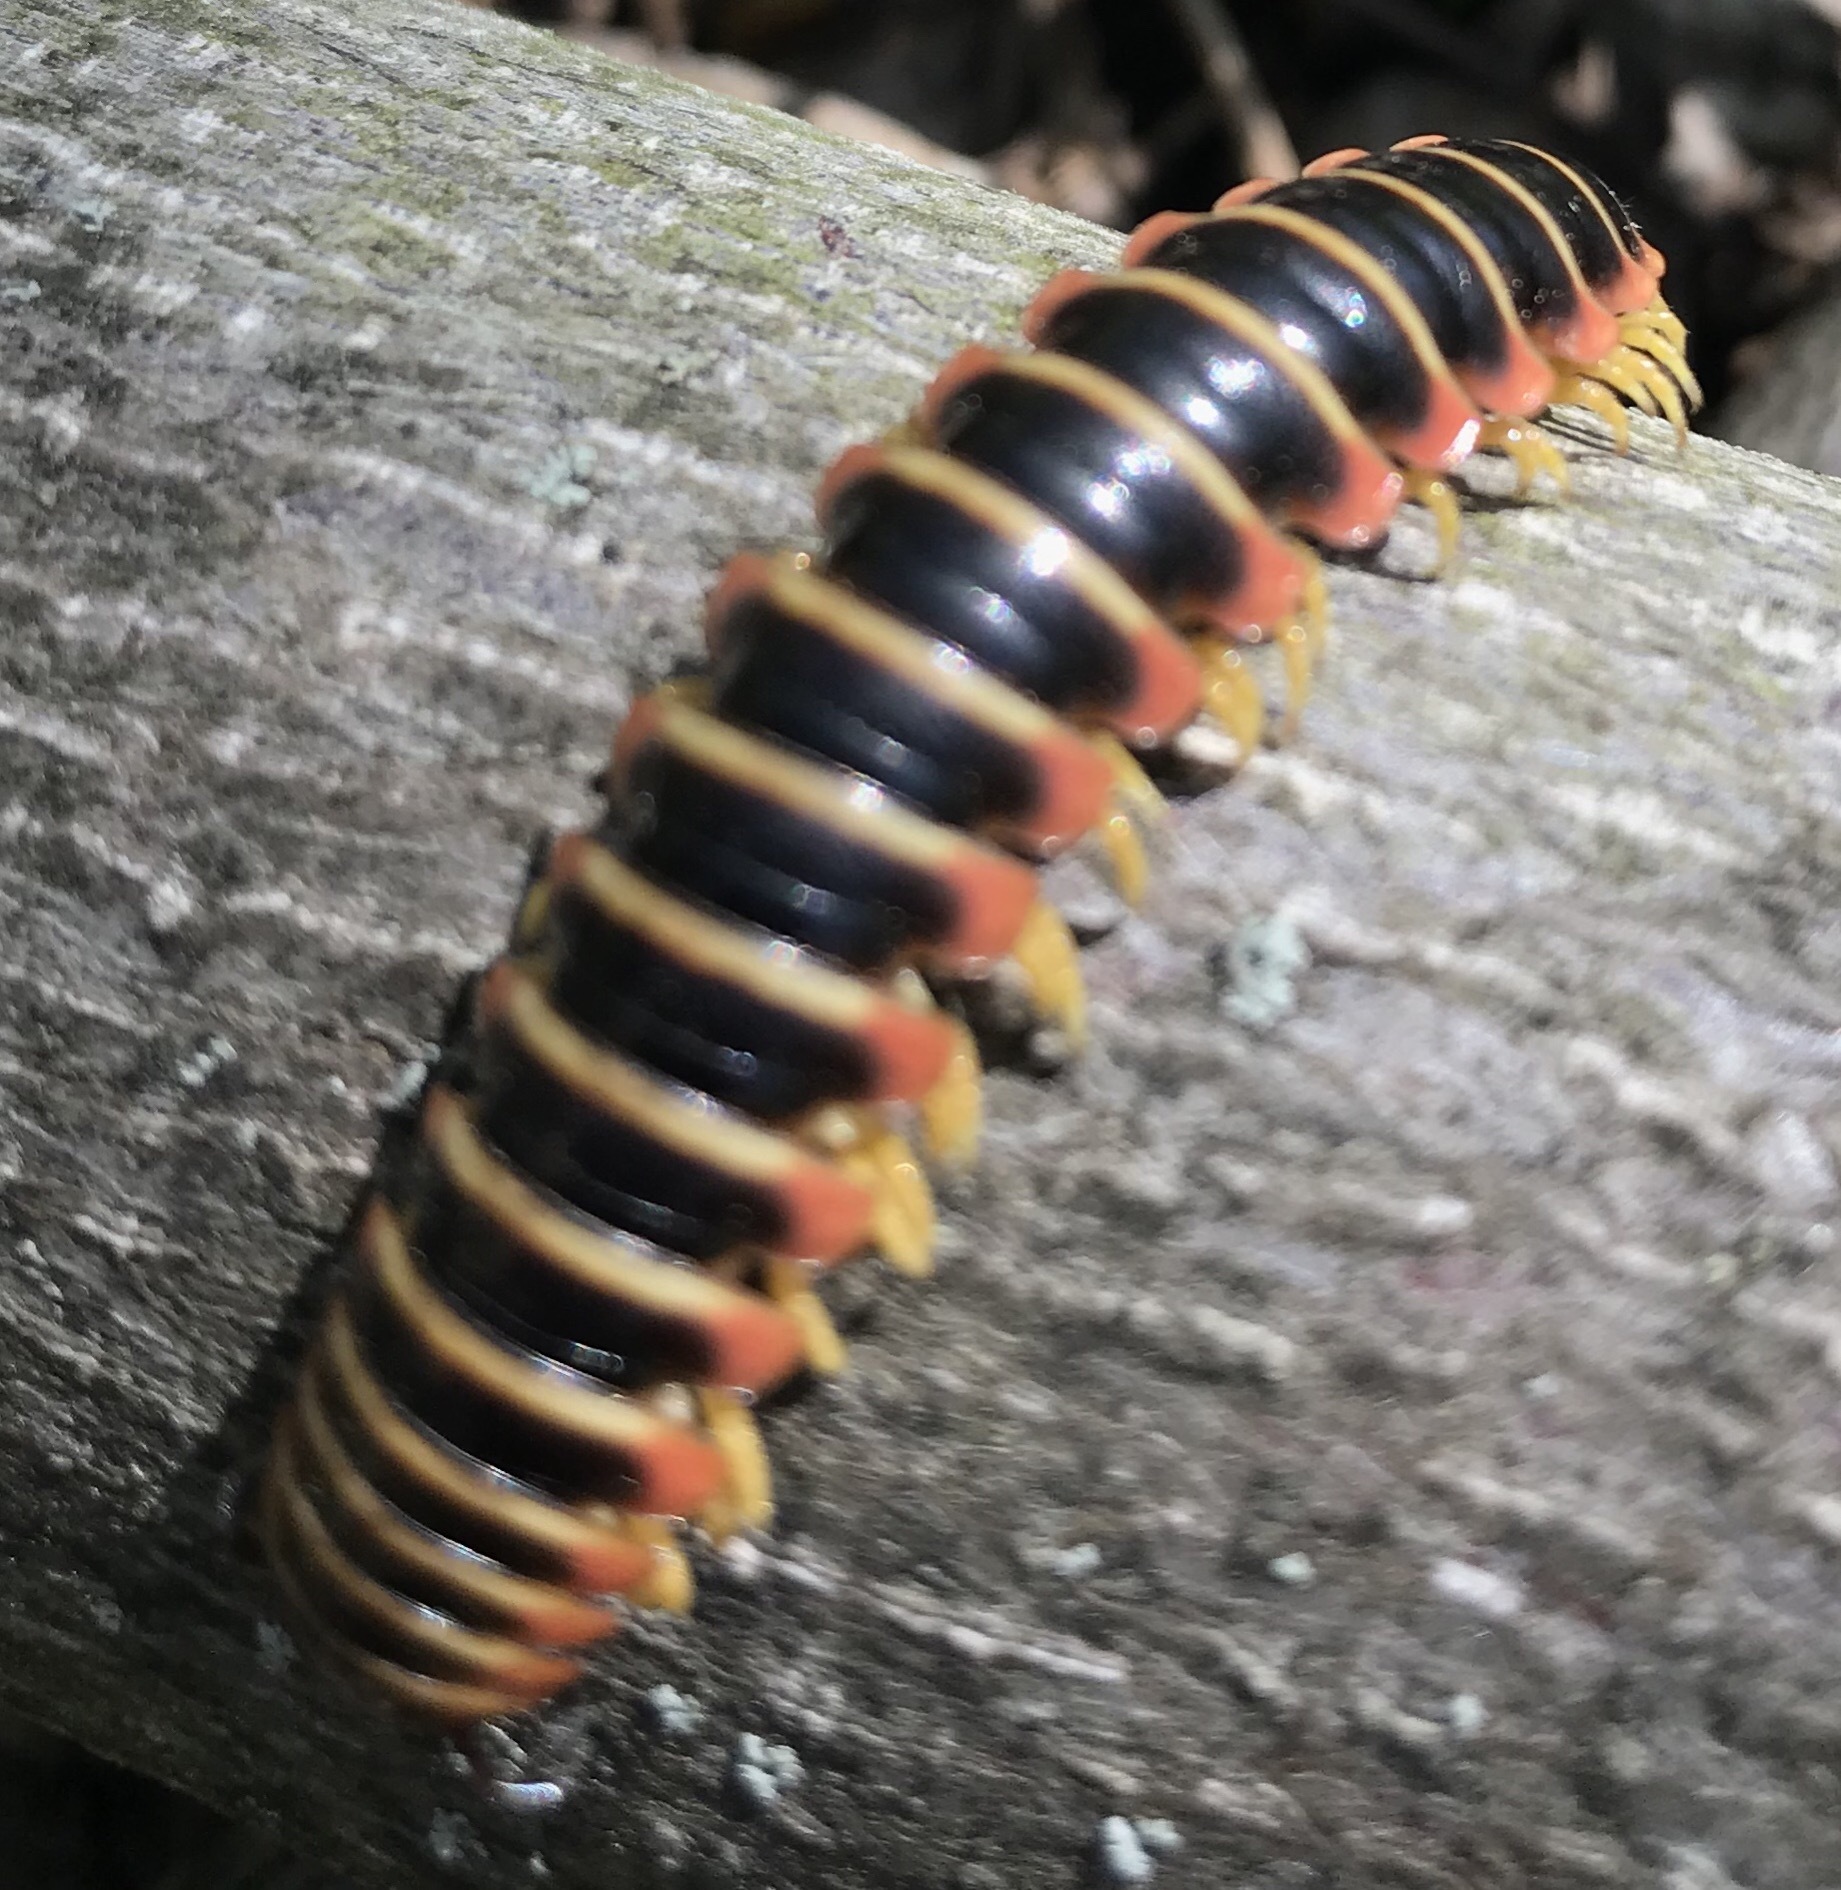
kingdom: Animalia
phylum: Arthropoda
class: Diplopoda
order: Polydesmida
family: Xystodesmidae
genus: Apheloria
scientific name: Apheloria virginiensis
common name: Black-and-gold flat millipede
